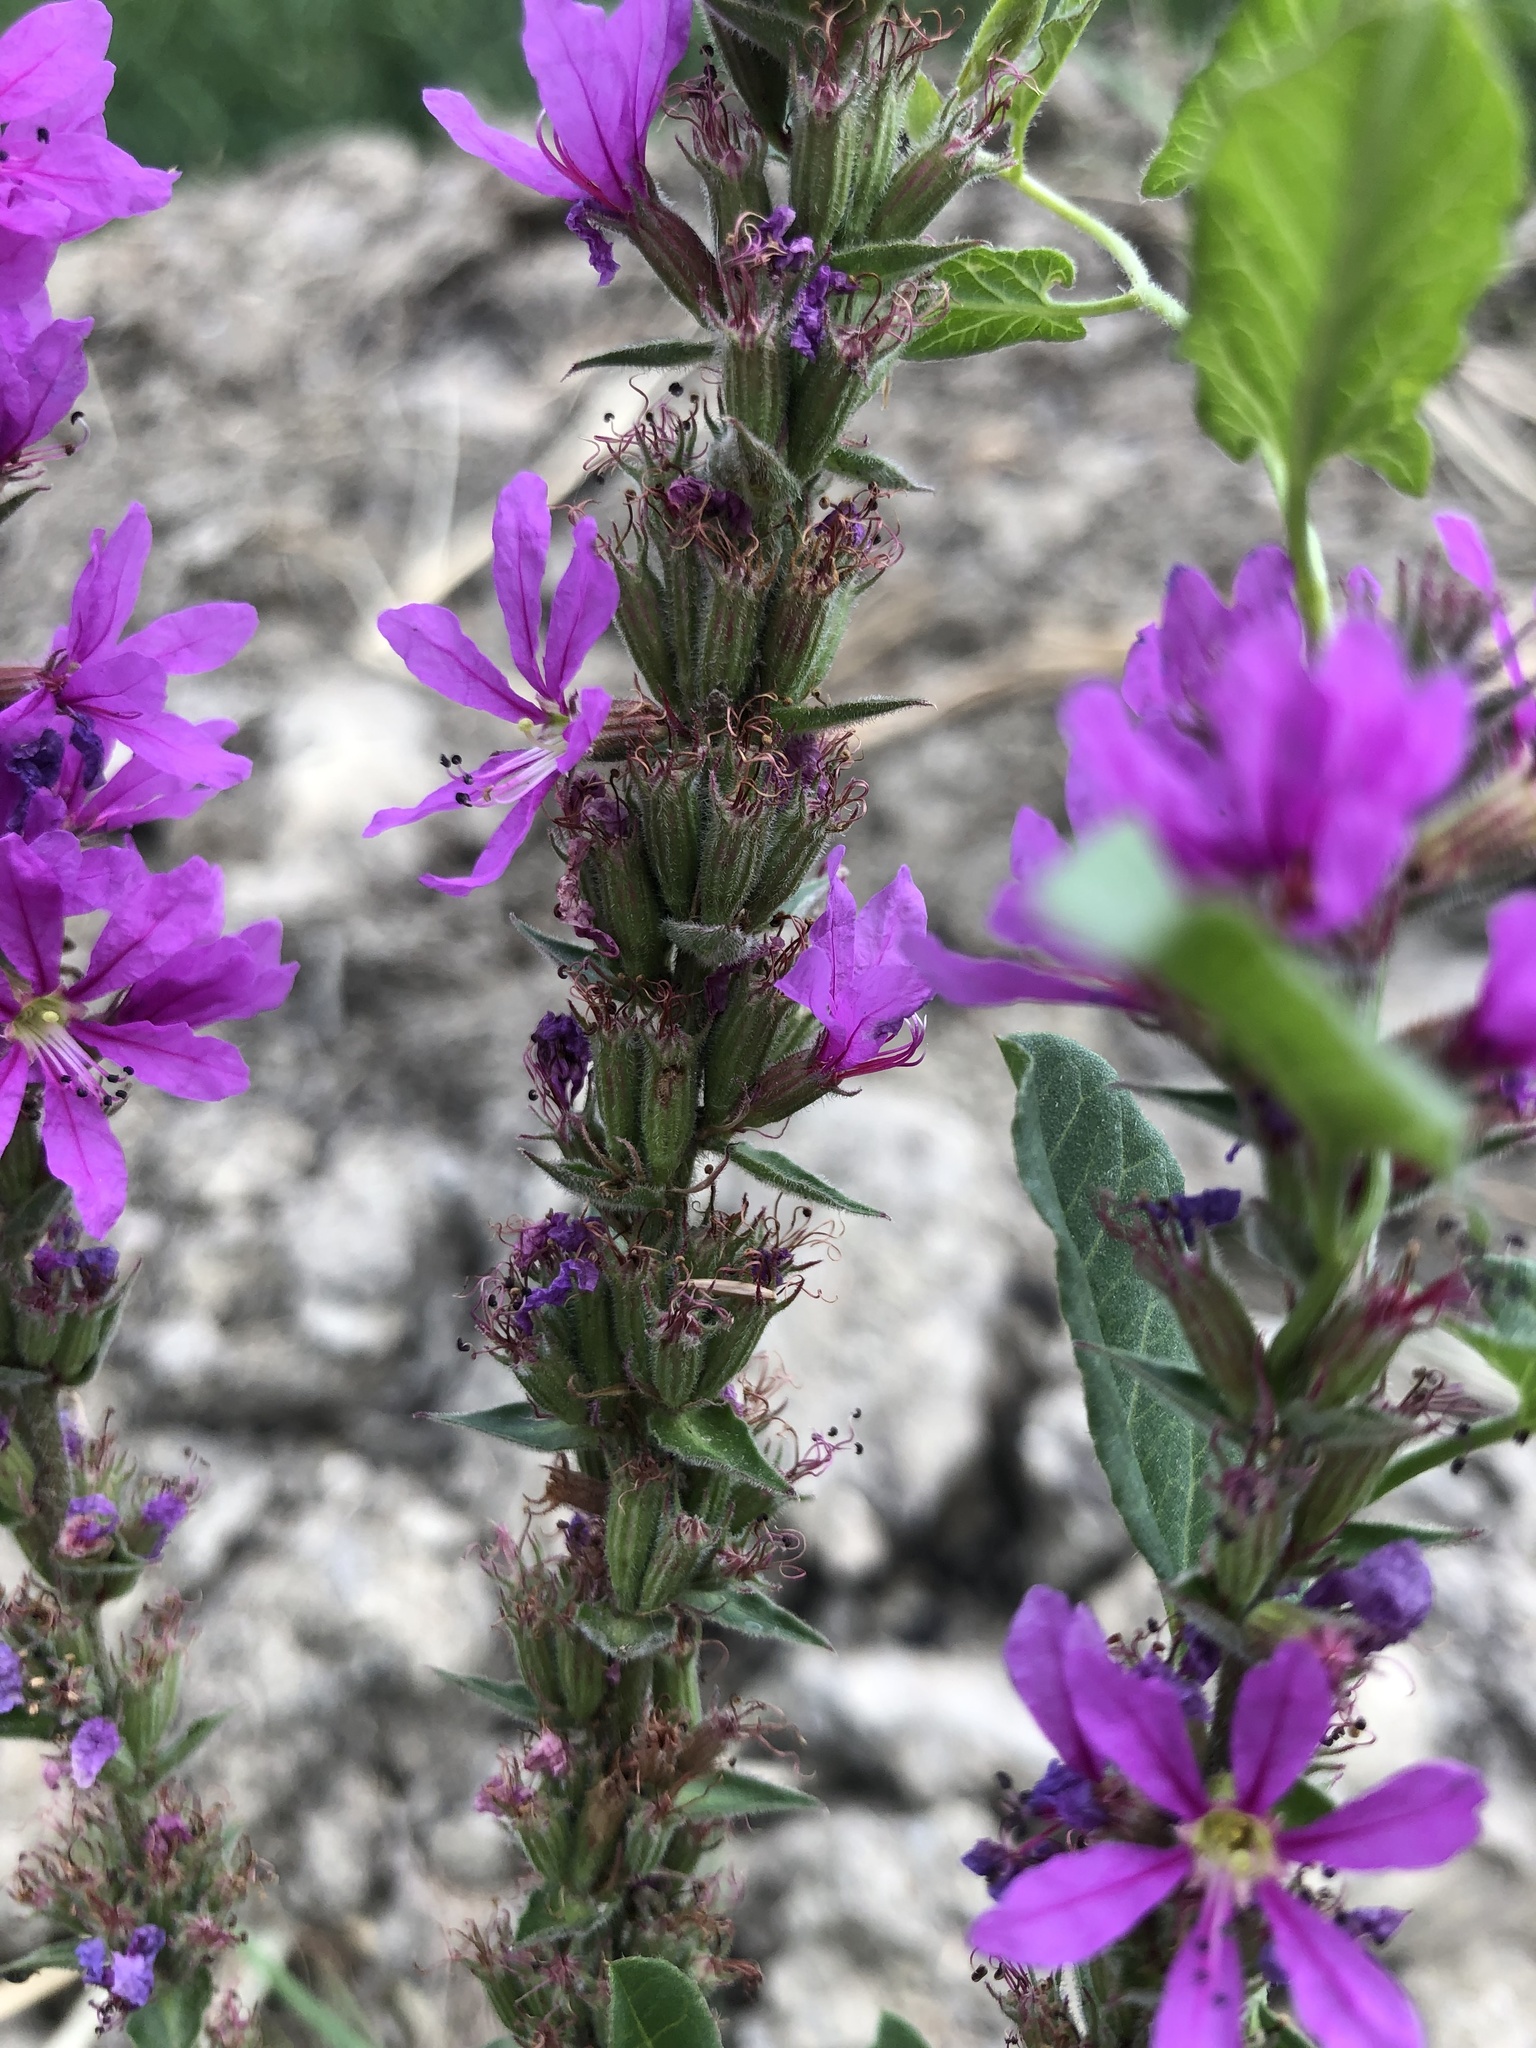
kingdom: Plantae
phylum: Tracheophyta
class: Magnoliopsida
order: Myrtales
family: Lythraceae
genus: Lythrum
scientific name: Lythrum salicaria
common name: Purple loosestrife
